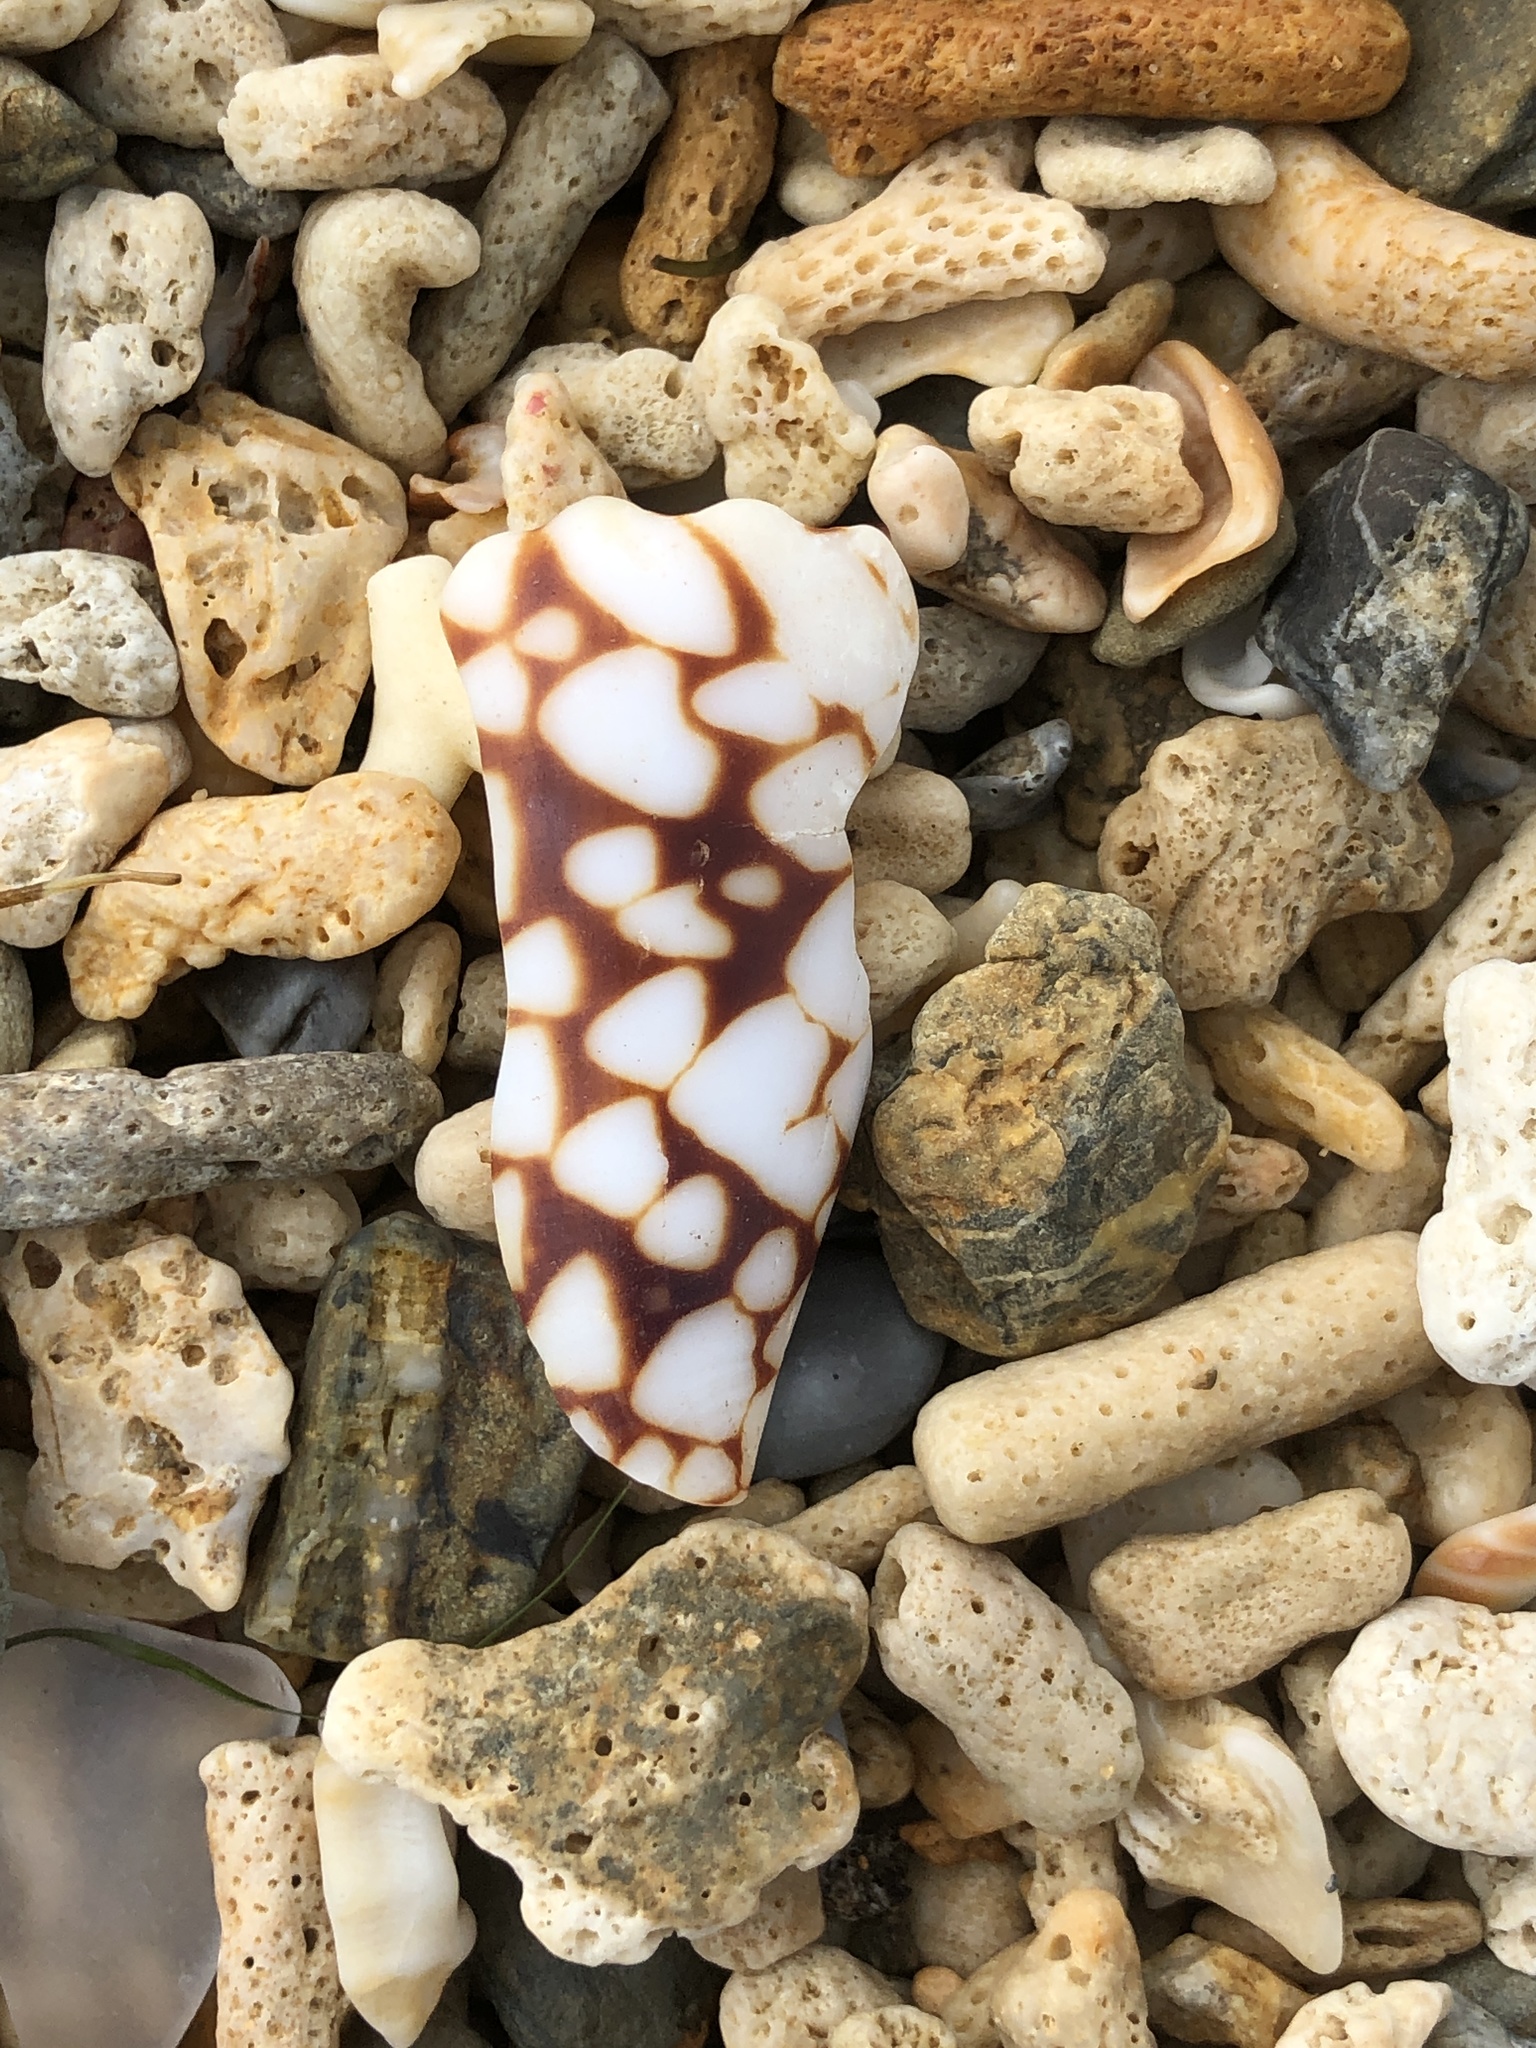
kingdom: Animalia
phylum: Mollusca
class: Gastropoda
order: Neogastropoda
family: Conidae
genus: Conus
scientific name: Conus bandanus
